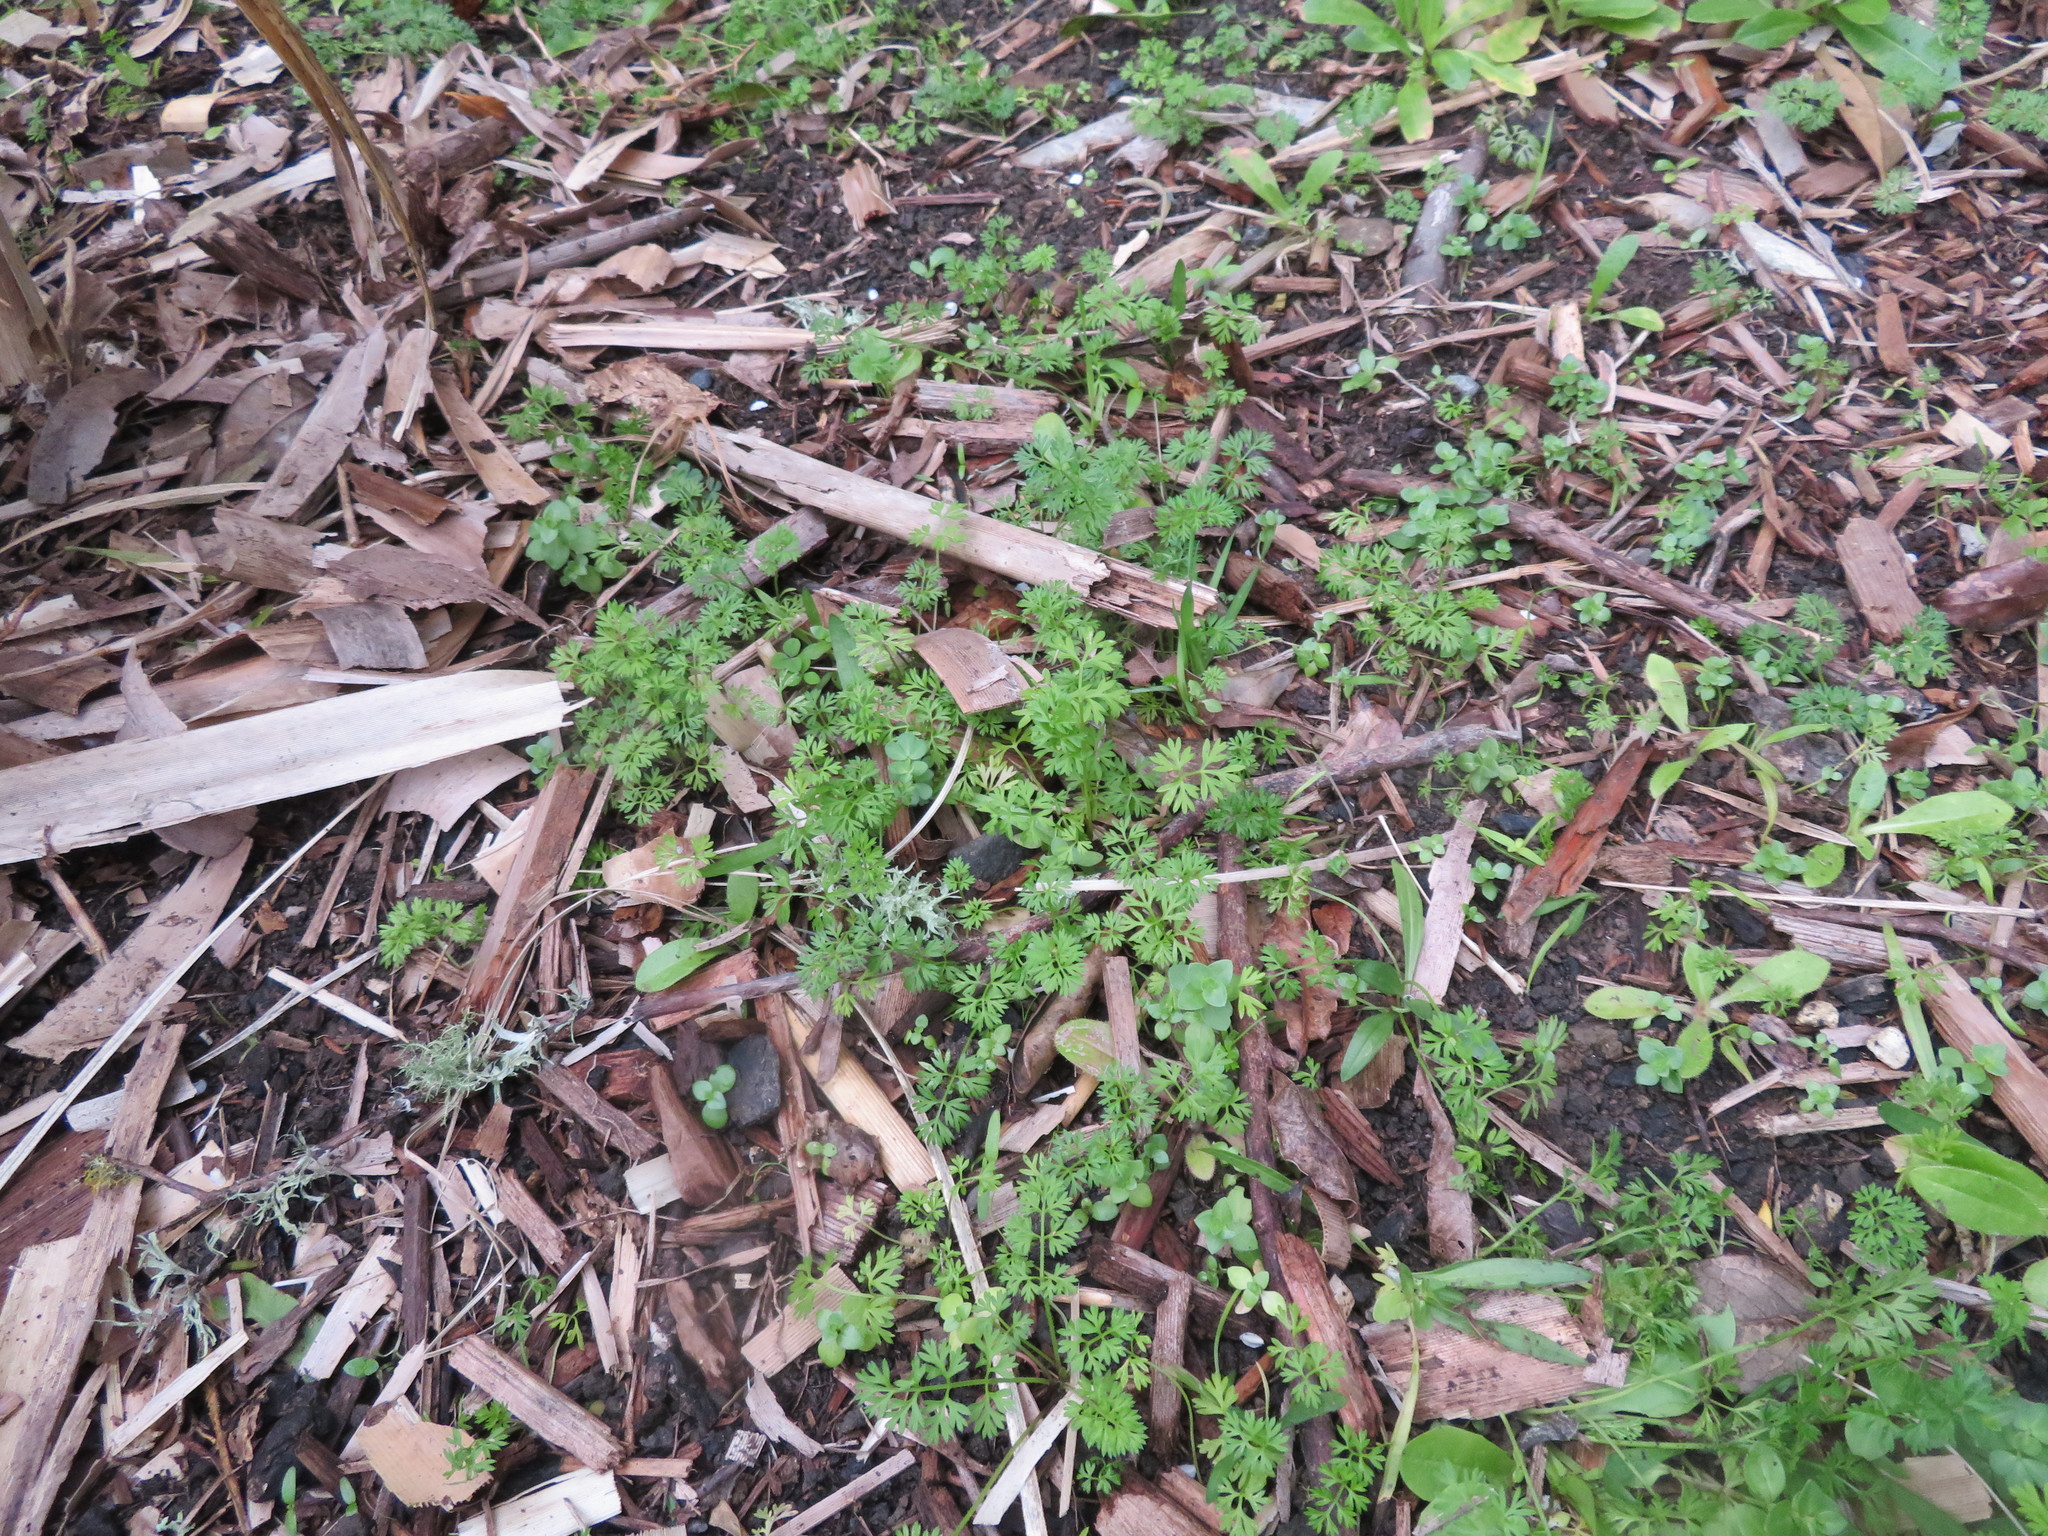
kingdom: Plantae
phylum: Tracheophyta
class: Magnoliopsida
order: Apiales
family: Apiaceae
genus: Daucus
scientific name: Daucus carota
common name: Wild carrot
